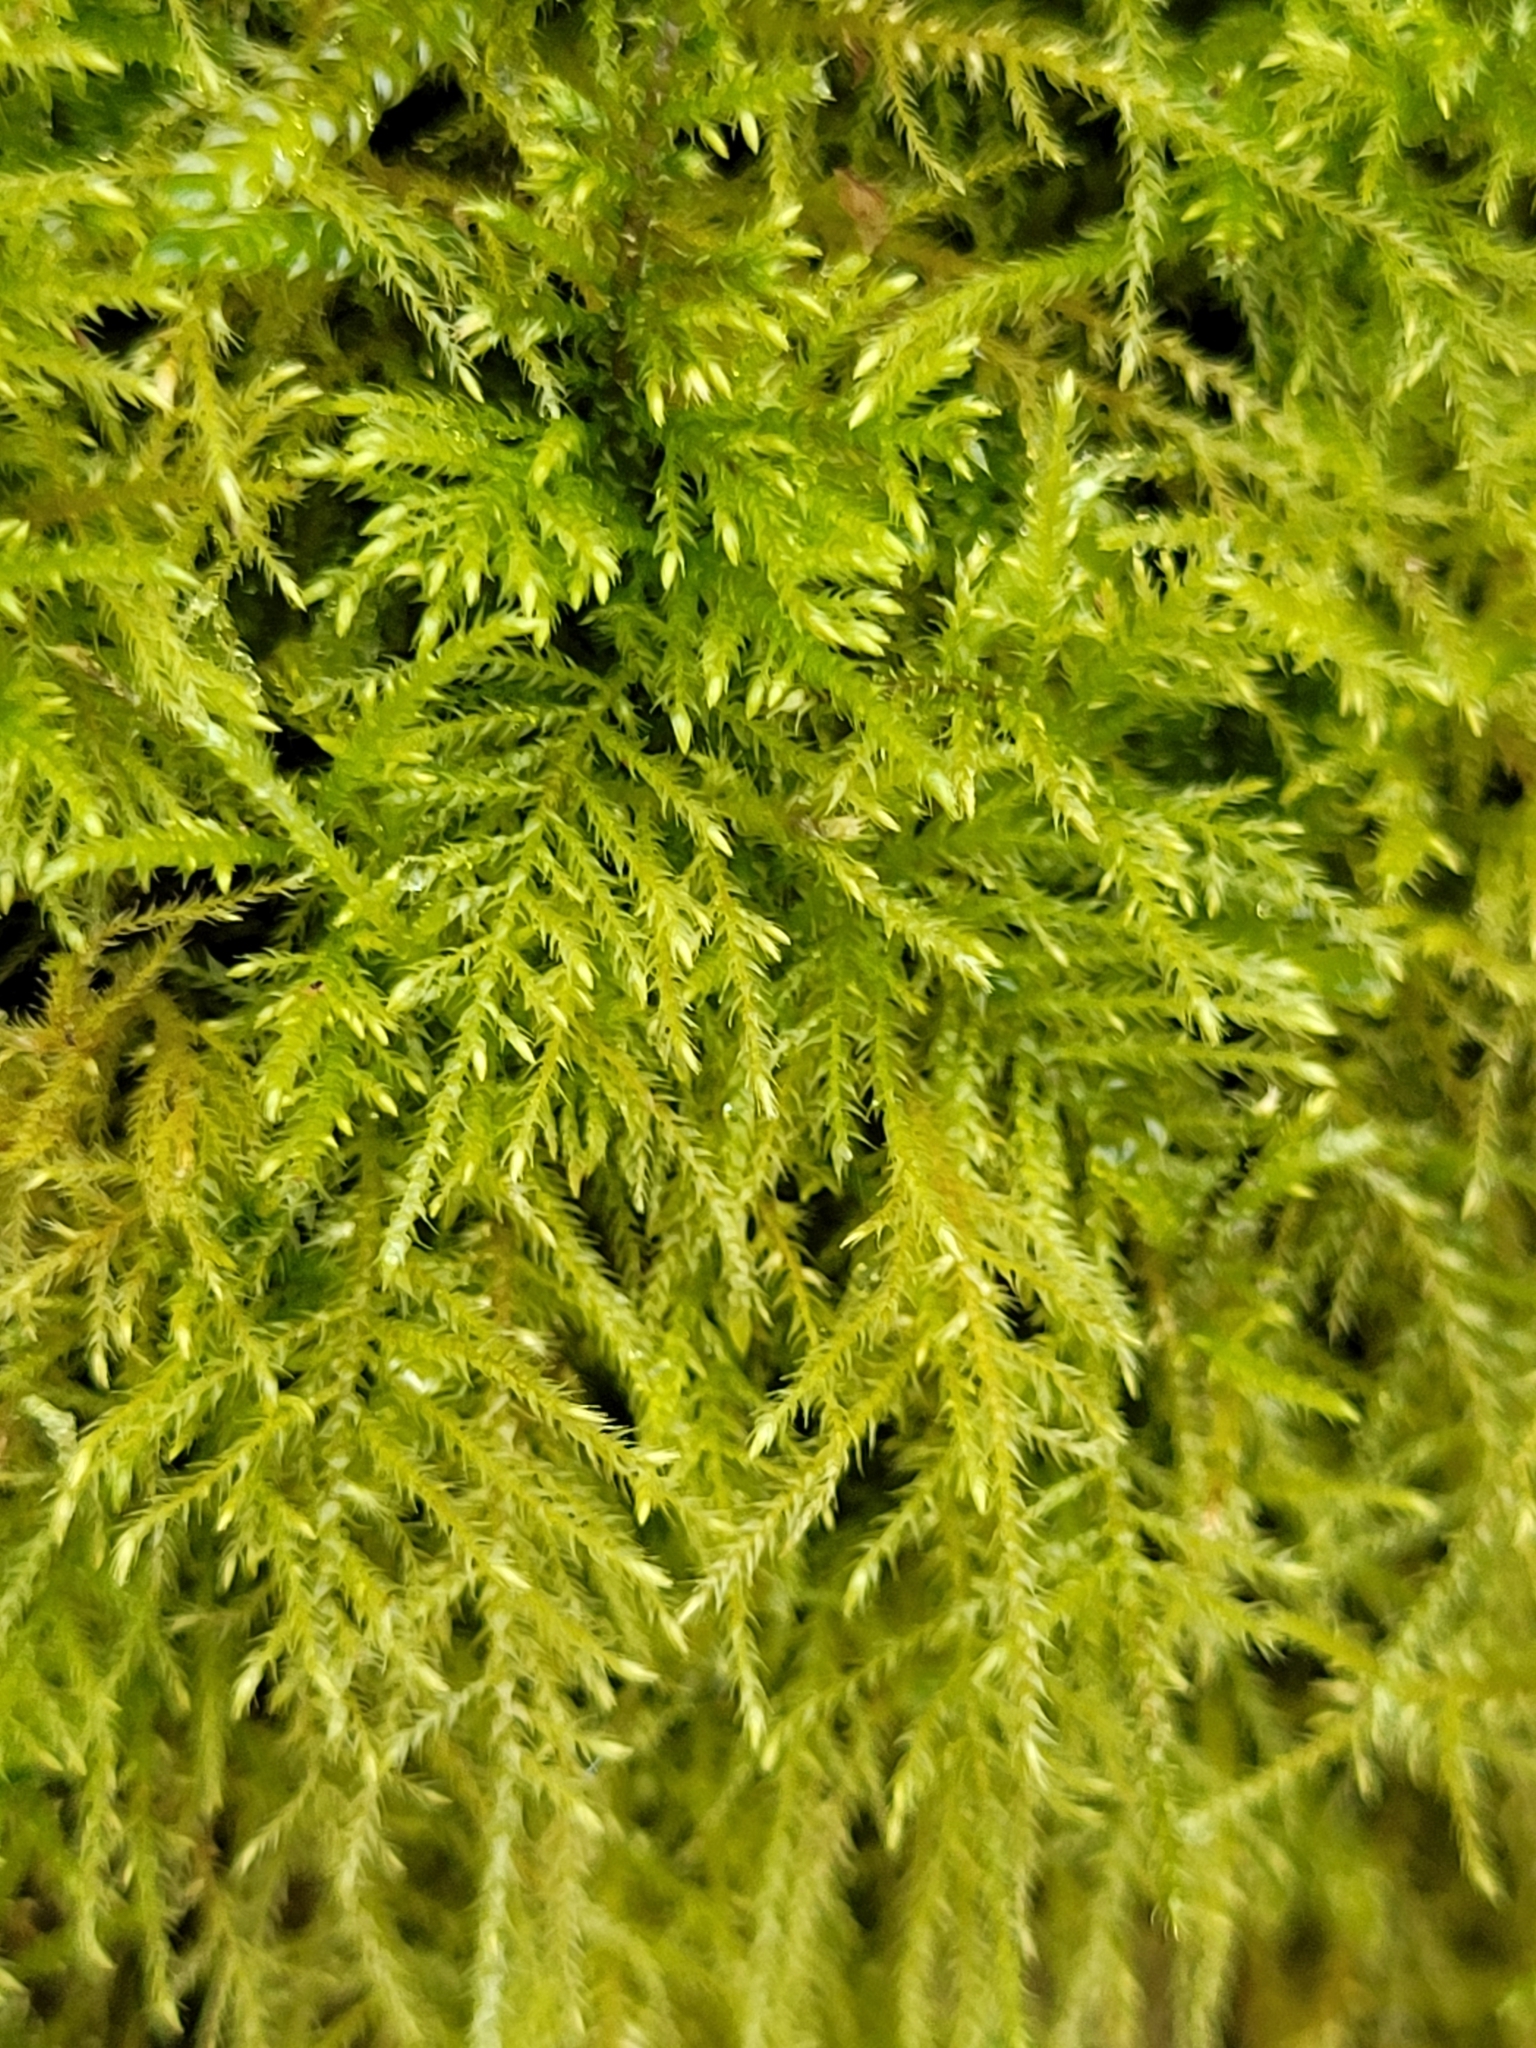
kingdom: Plantae
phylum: Bryophyta
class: Bryopsida
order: Hypnales
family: Brachytheciaceae
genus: Kindbergia
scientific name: Kindbergia praelonga
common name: Slender beaked moss
